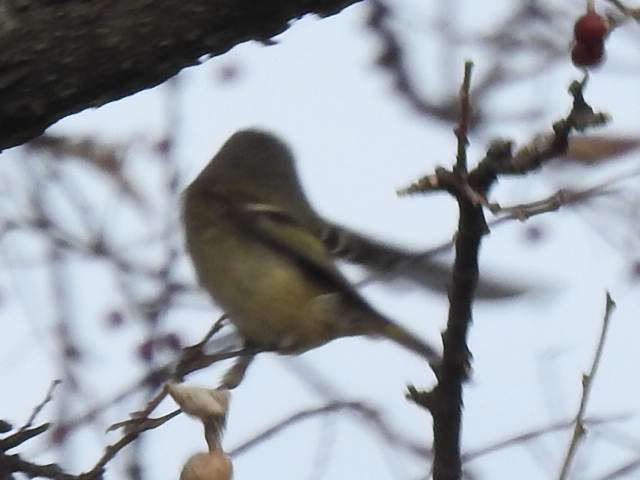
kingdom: Animalia
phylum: Chordata
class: Aves
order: Passeriformes
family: Regulidae
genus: Regulus
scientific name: Regulus calendula
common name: Ruby-crowned kinglet
